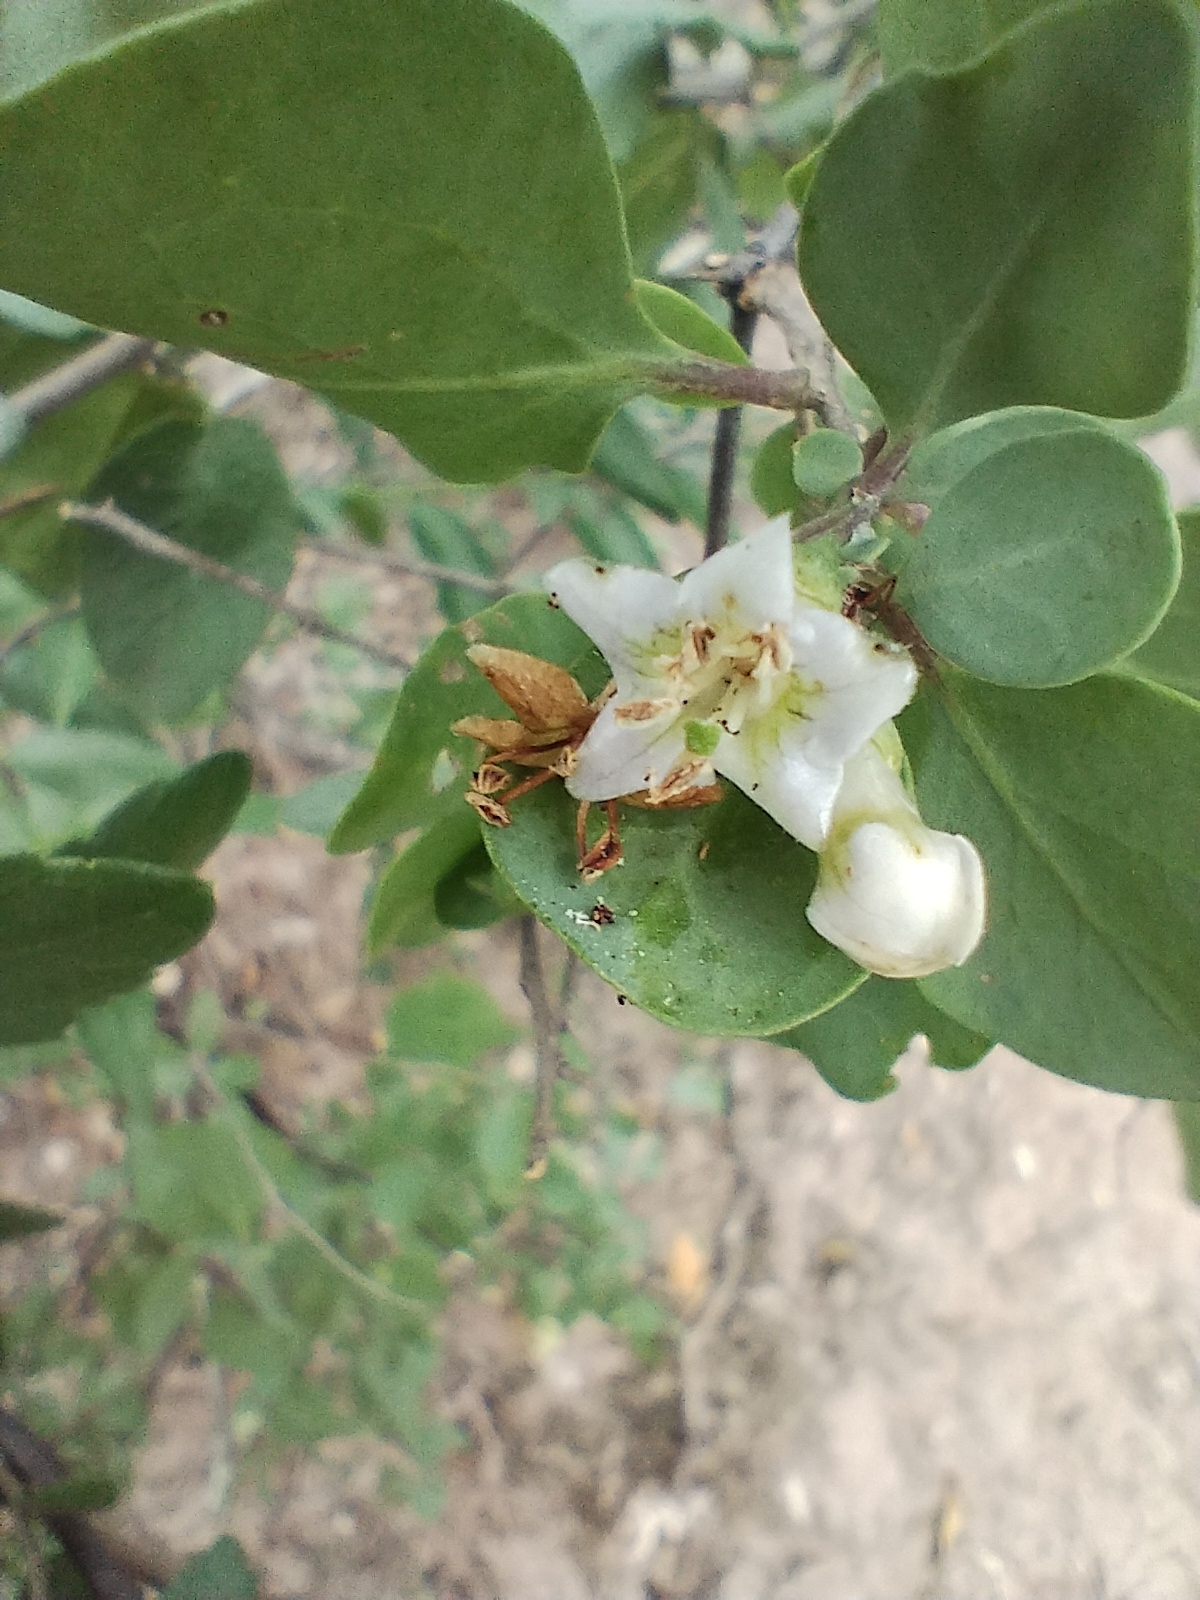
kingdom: Plantae
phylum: Tracheophyta
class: Magnoliopsida
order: Solanales
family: Solanaceae
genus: Lycium
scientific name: Lycium boerhaaviifolium
